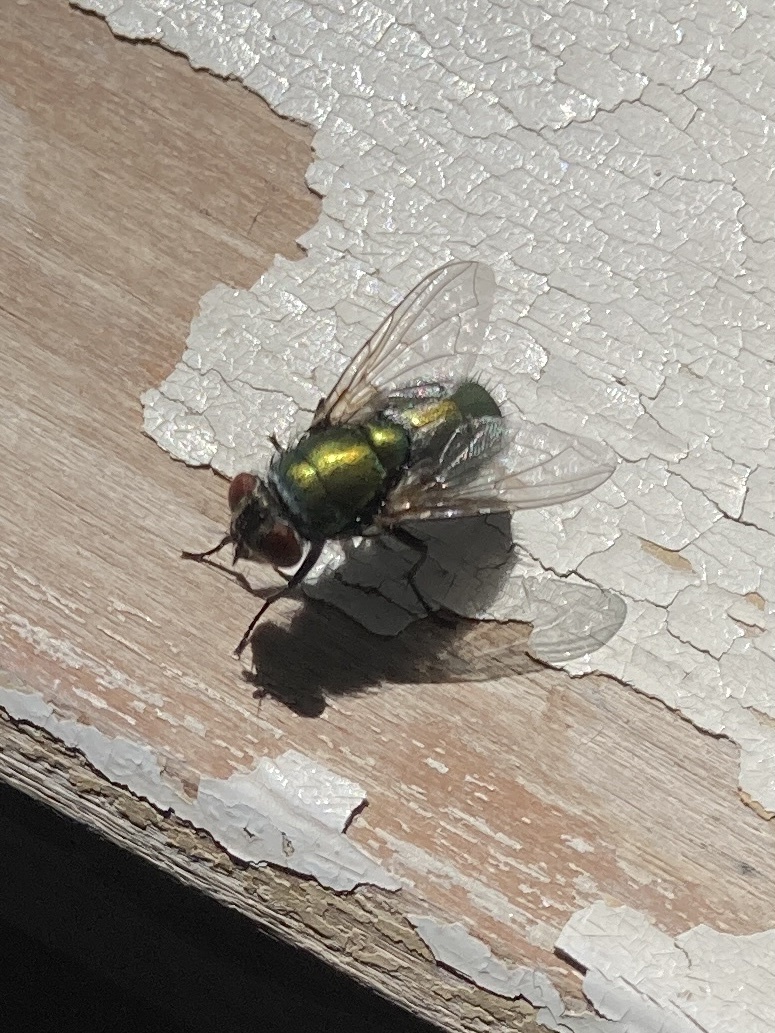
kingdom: Animalia
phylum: Arthropoda
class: Insecta
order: Diptera
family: Calliphoridae
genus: Lucilia
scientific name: Lucilia sericata
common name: Blow fly
